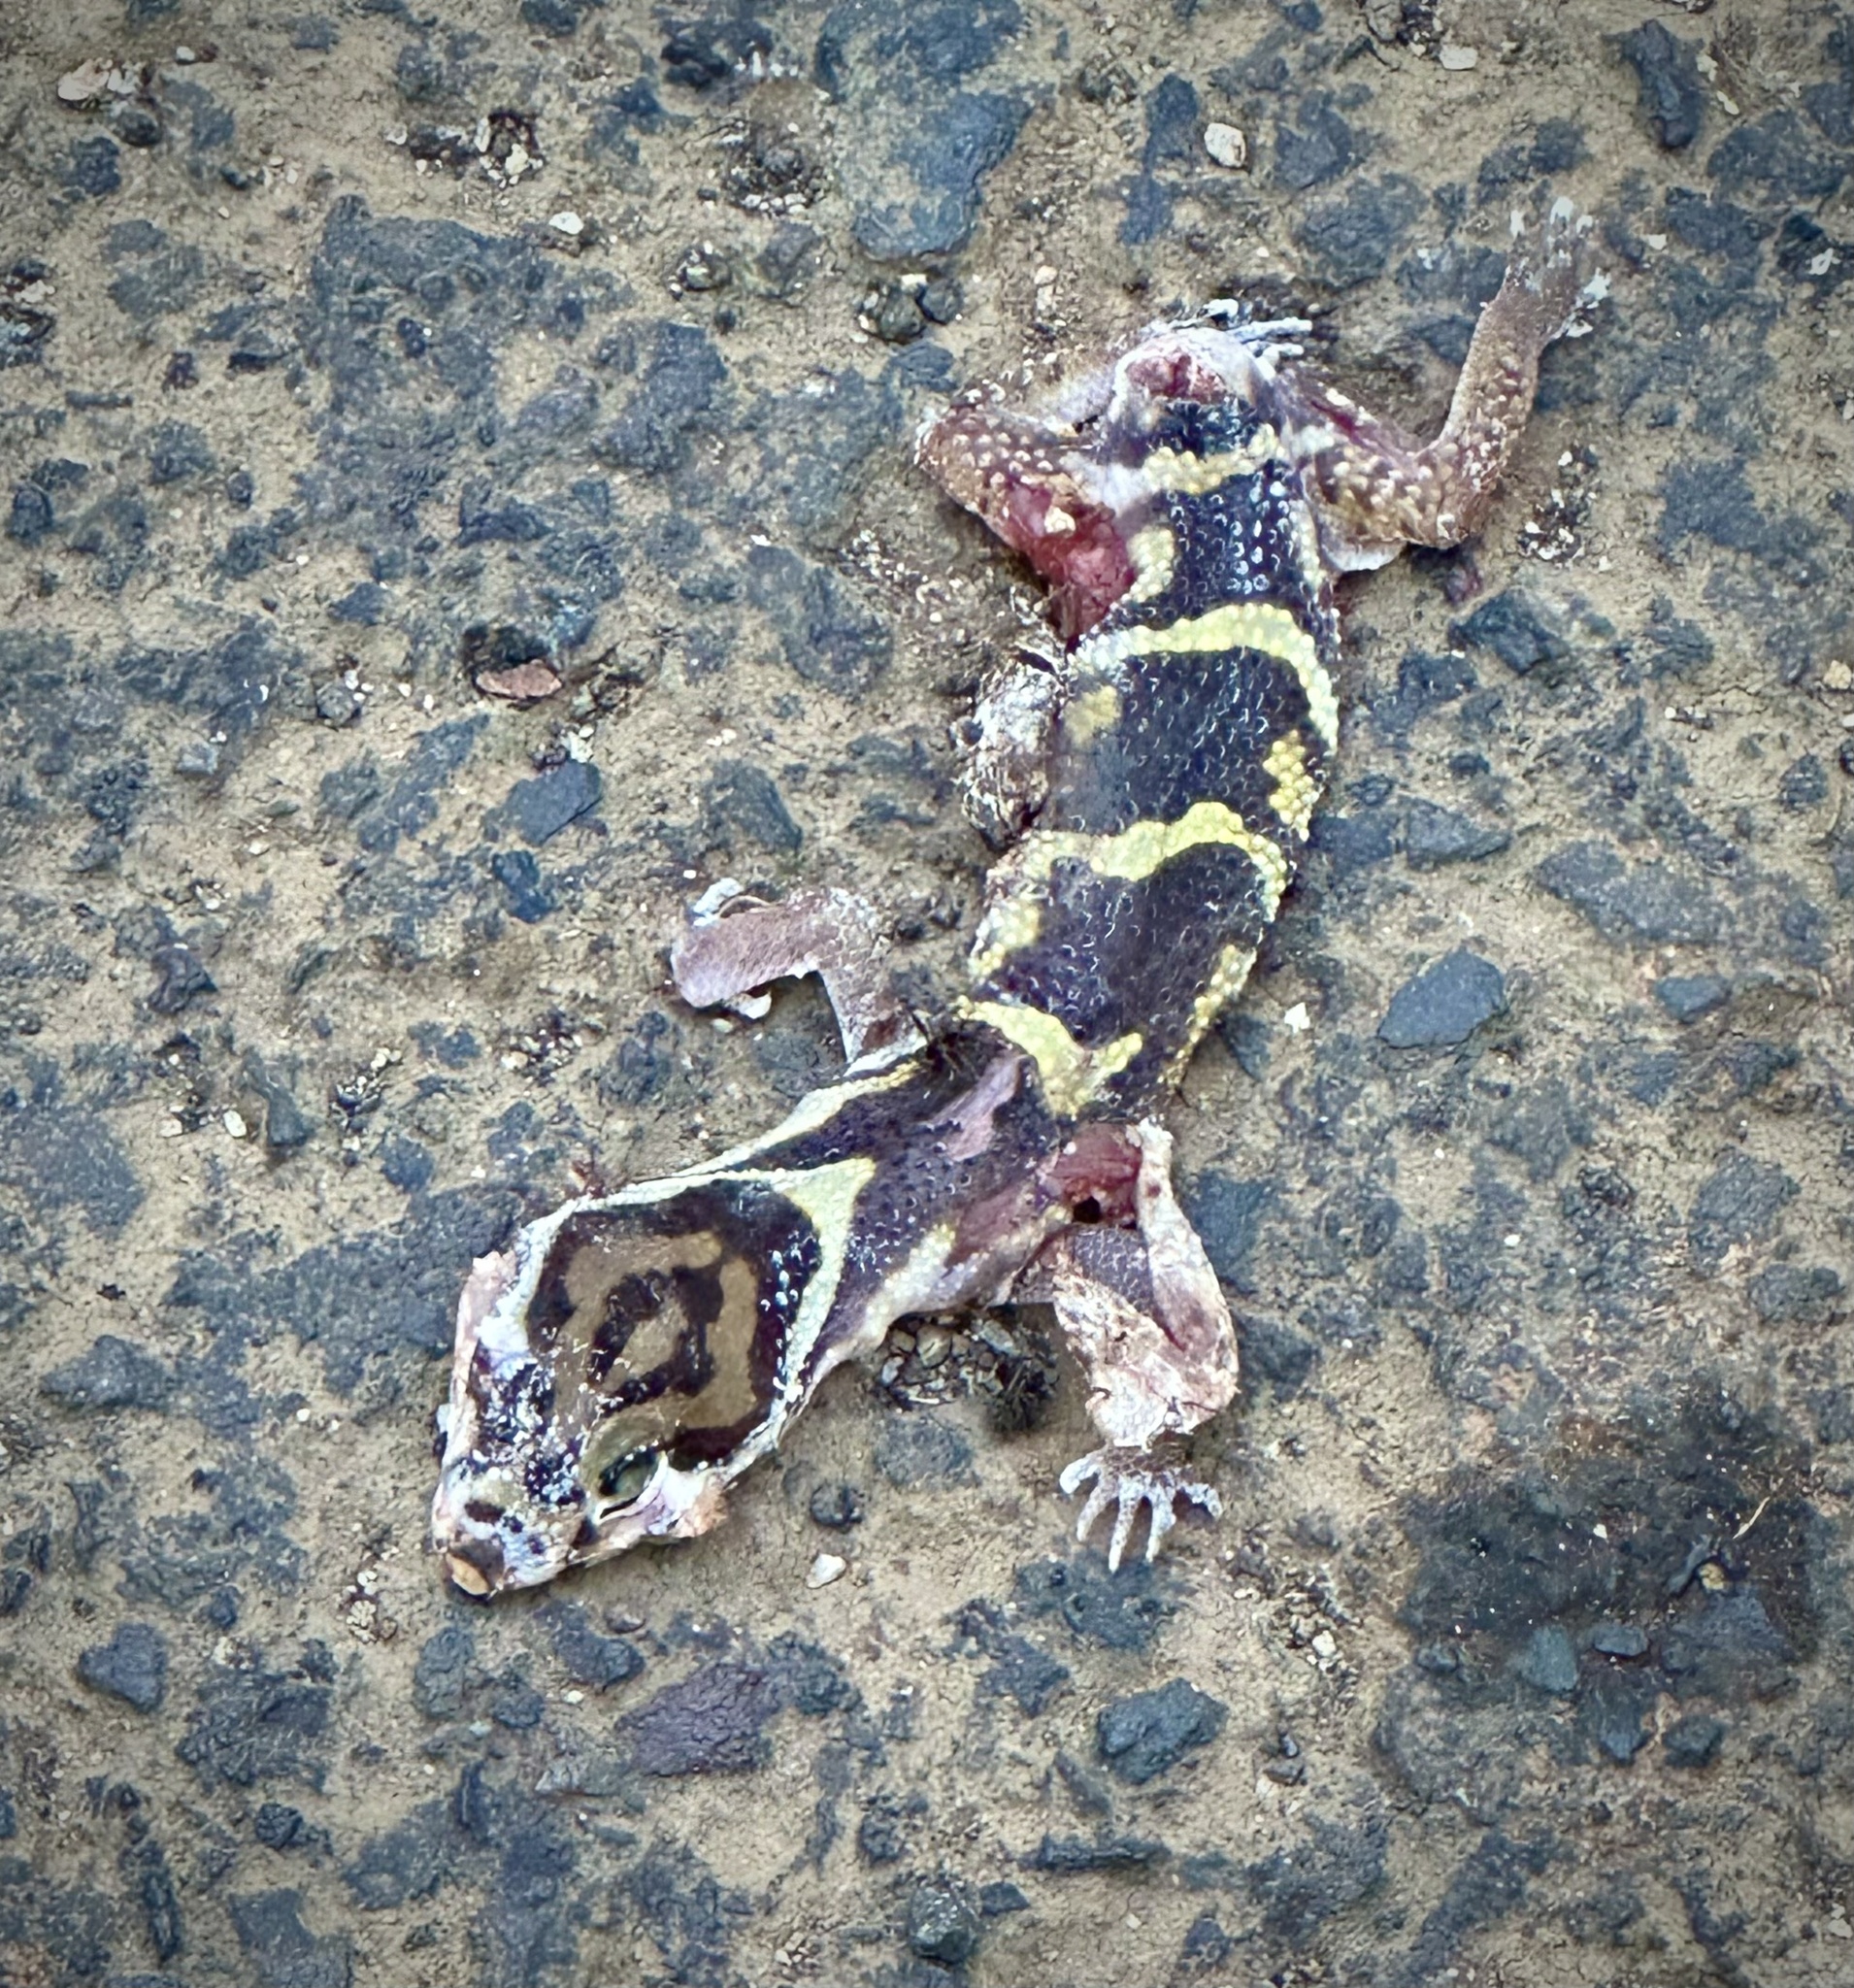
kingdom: Animalia
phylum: Chordata
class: Squamata
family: Eublepharidae
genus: Coleonyx
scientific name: Coleonyx mitratus
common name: Central american banded gecko
